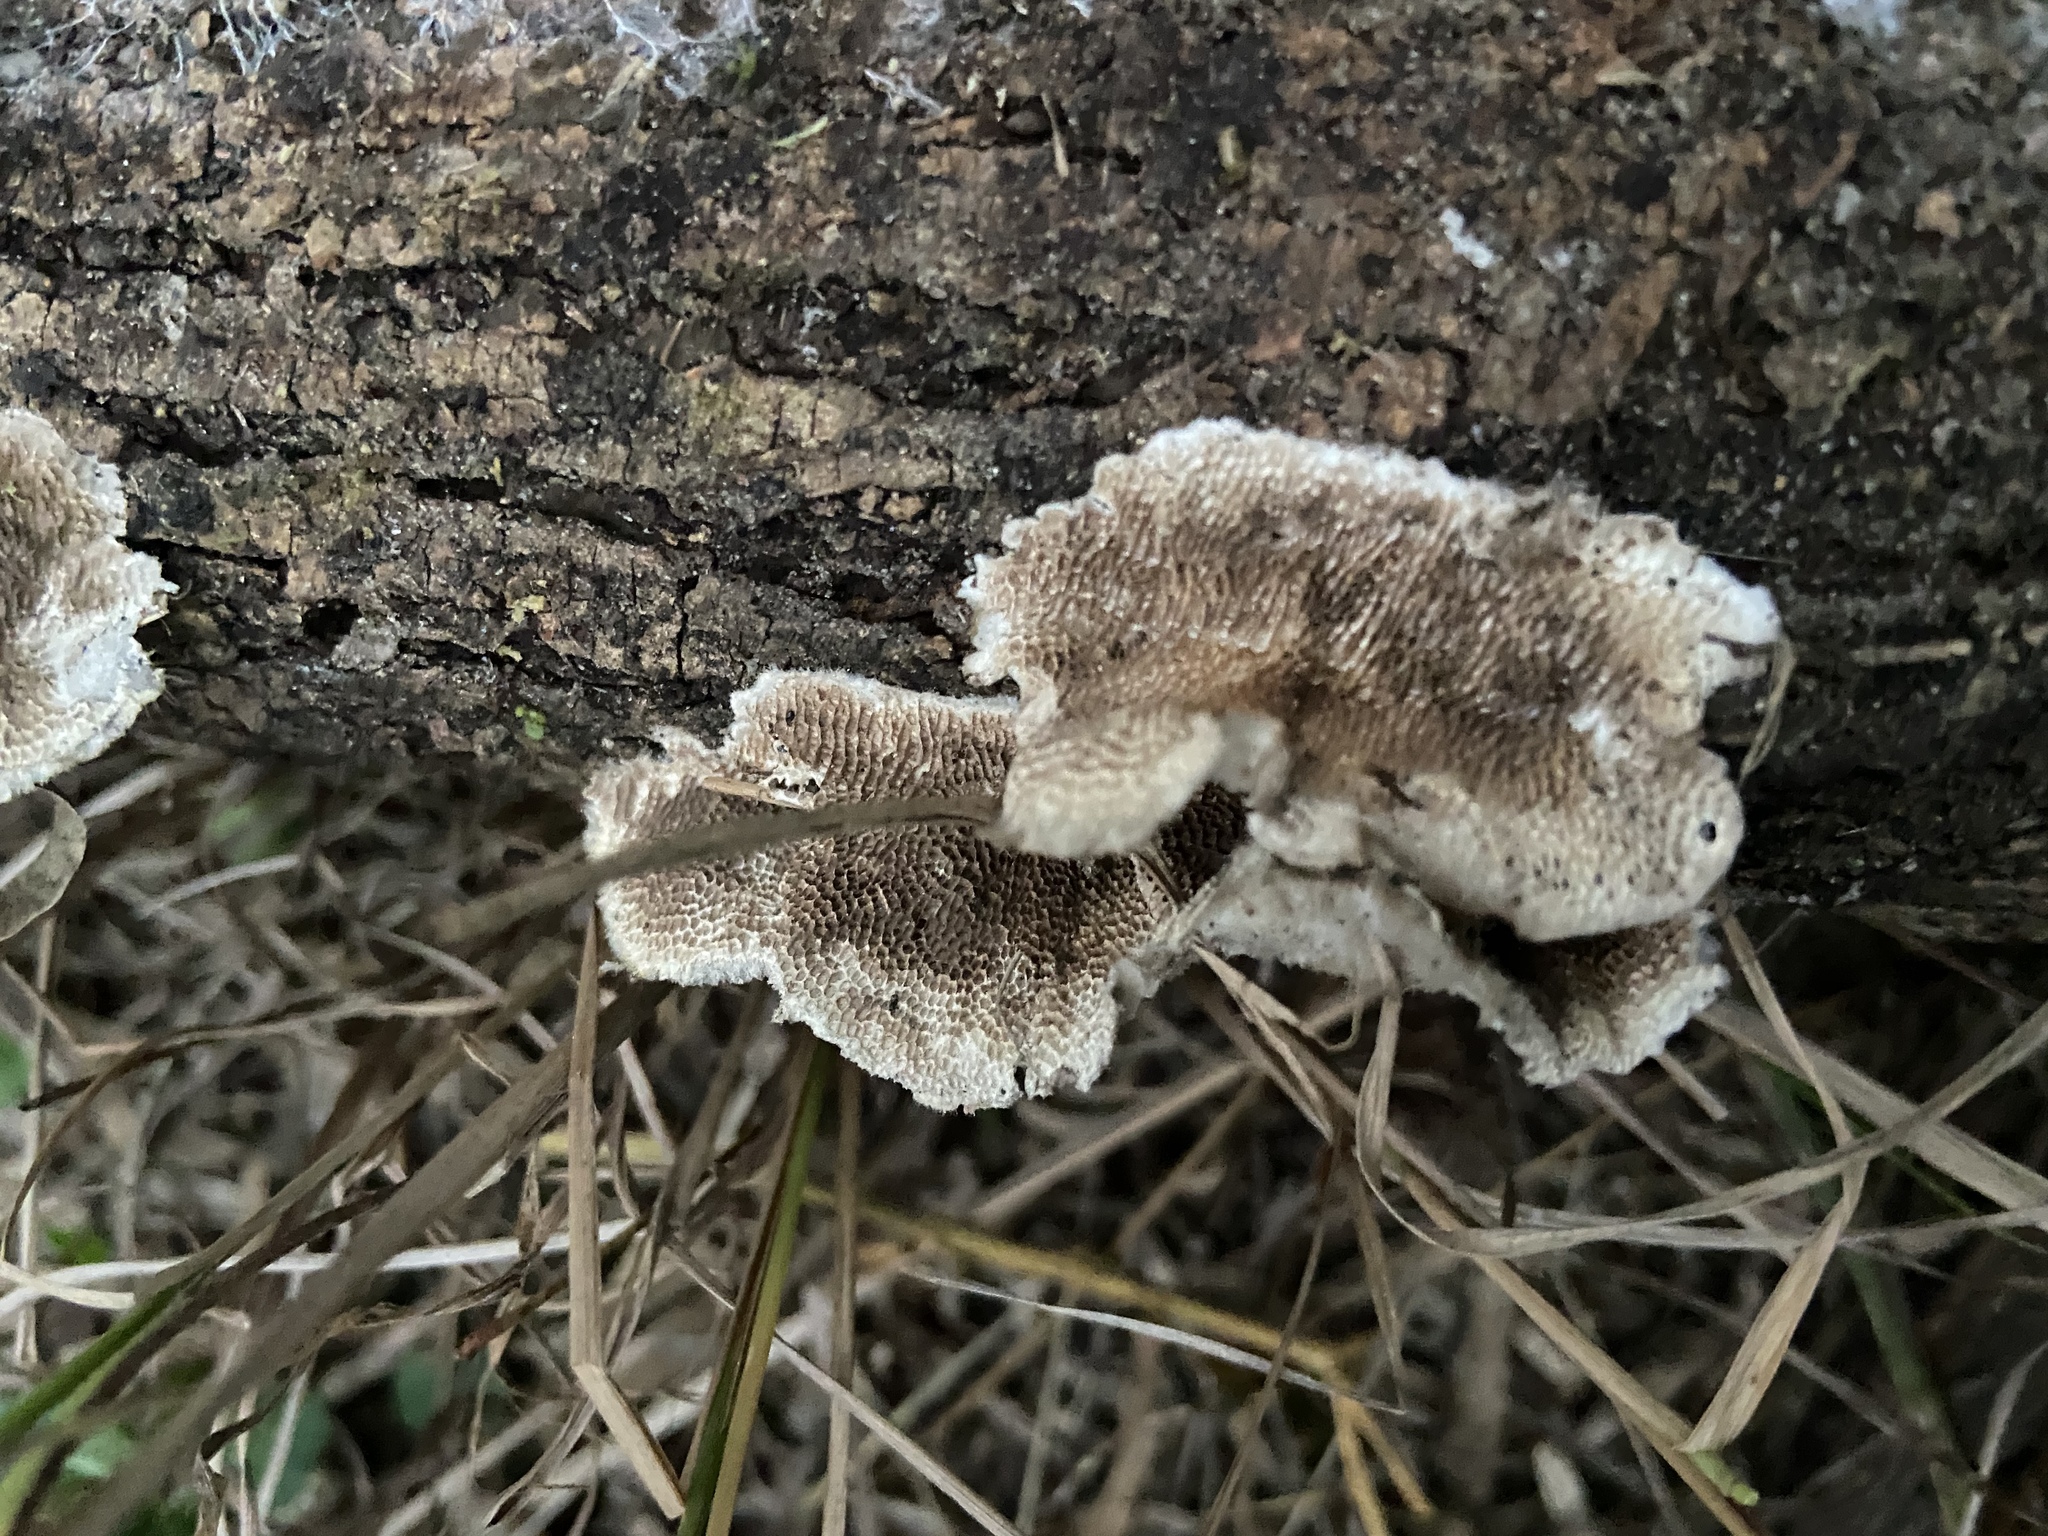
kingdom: Fungi
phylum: Basidiomycota
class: Agaricomycetes
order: Polyporales
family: Polyporaceae
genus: Trametes
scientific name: Trametes villosa
